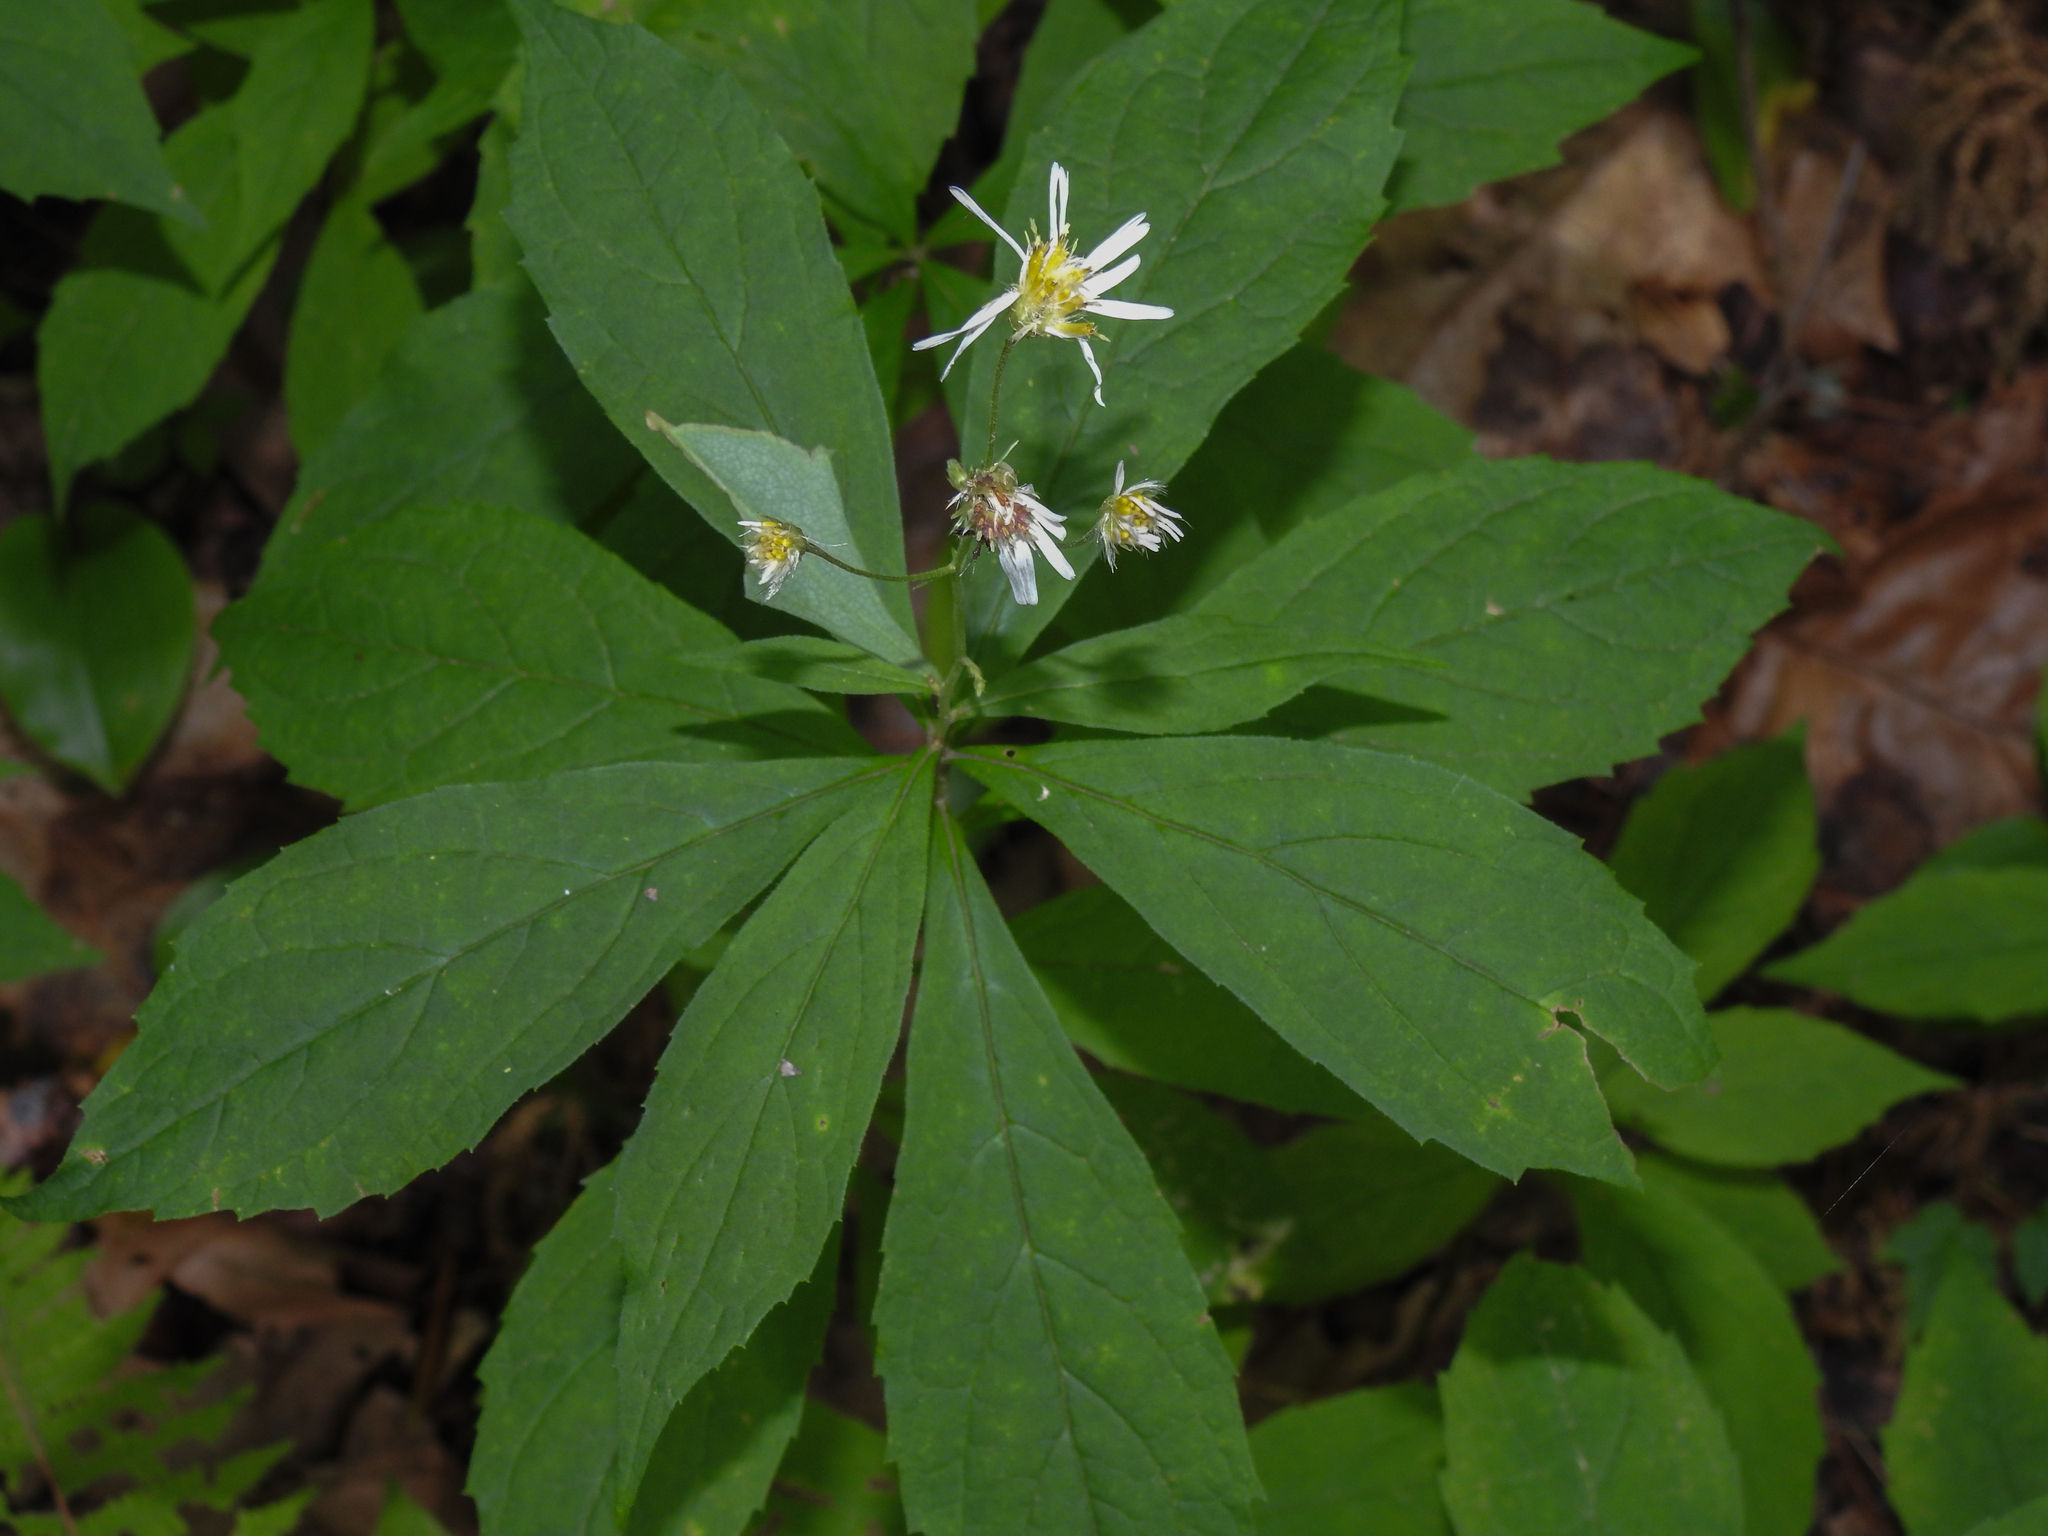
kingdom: Plantae
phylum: Tracheophyta
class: Magnoliopsida
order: Asterales
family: Asteraceae
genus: Oclemena
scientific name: Oclemena acuminata
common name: Mountain aster
